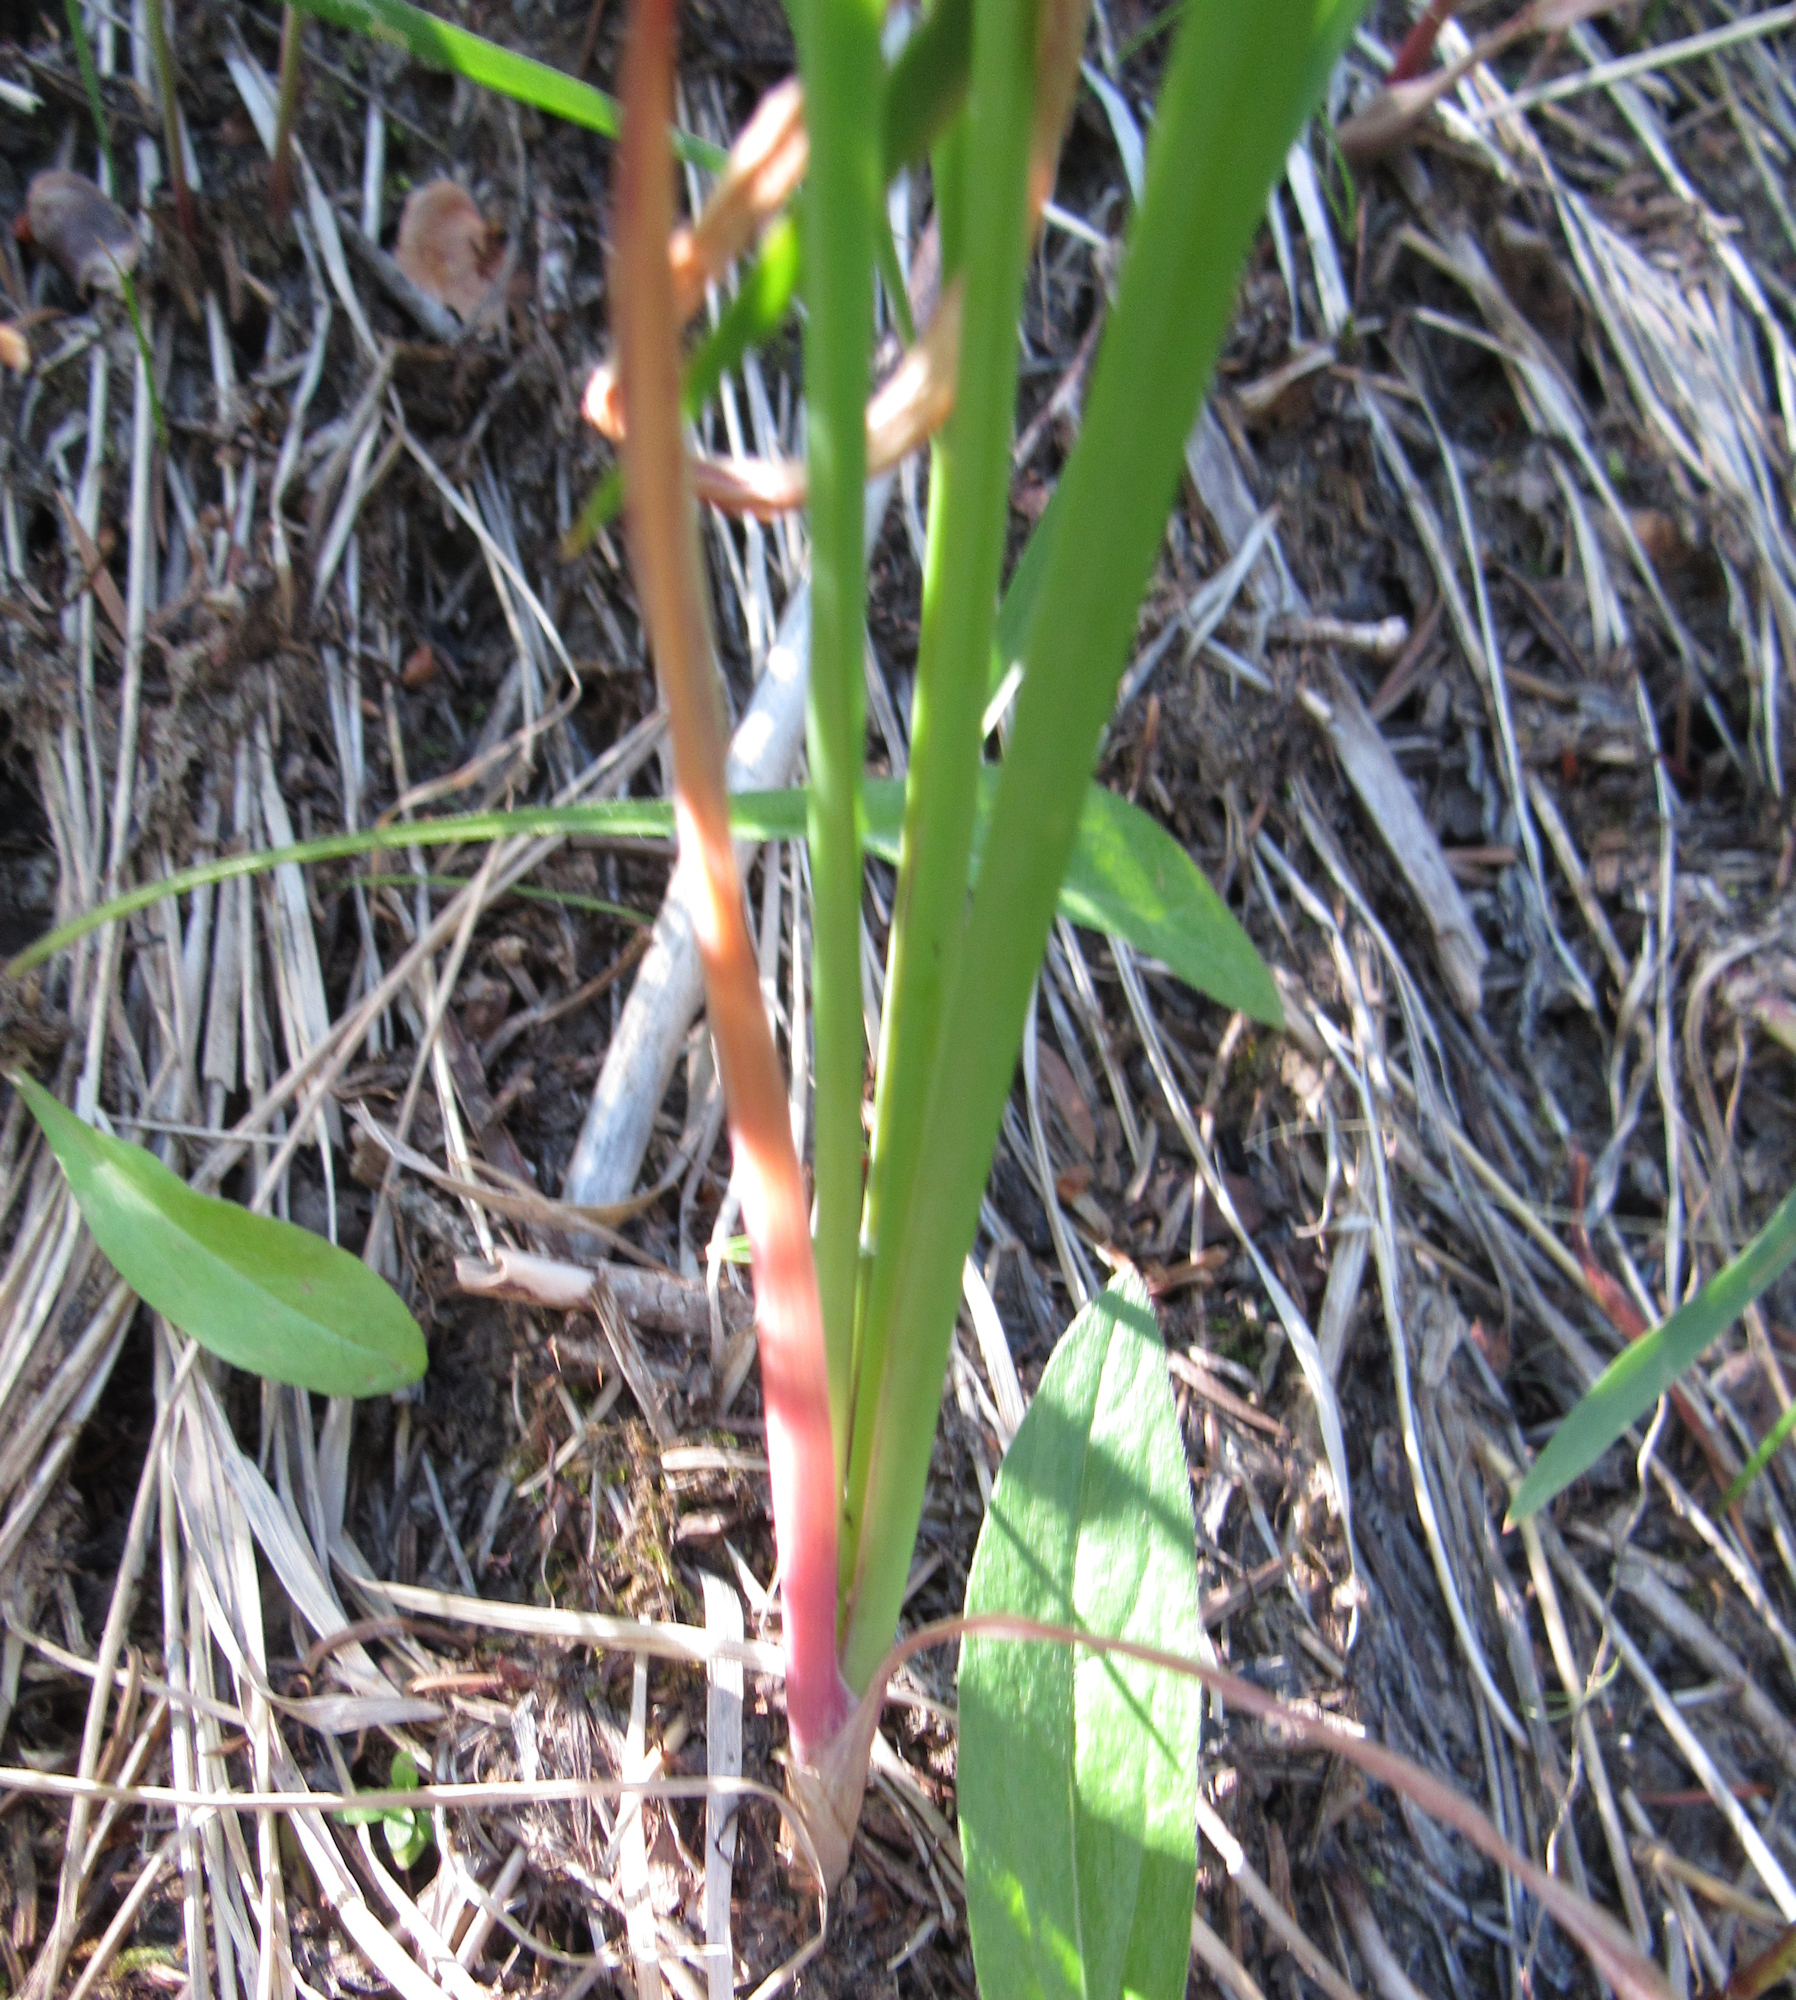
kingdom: Plantae
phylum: Tracheophyta
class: Liliopsida
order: Asparagales
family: Amaryllidaceae
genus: Allium
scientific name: Allium brevistylum
